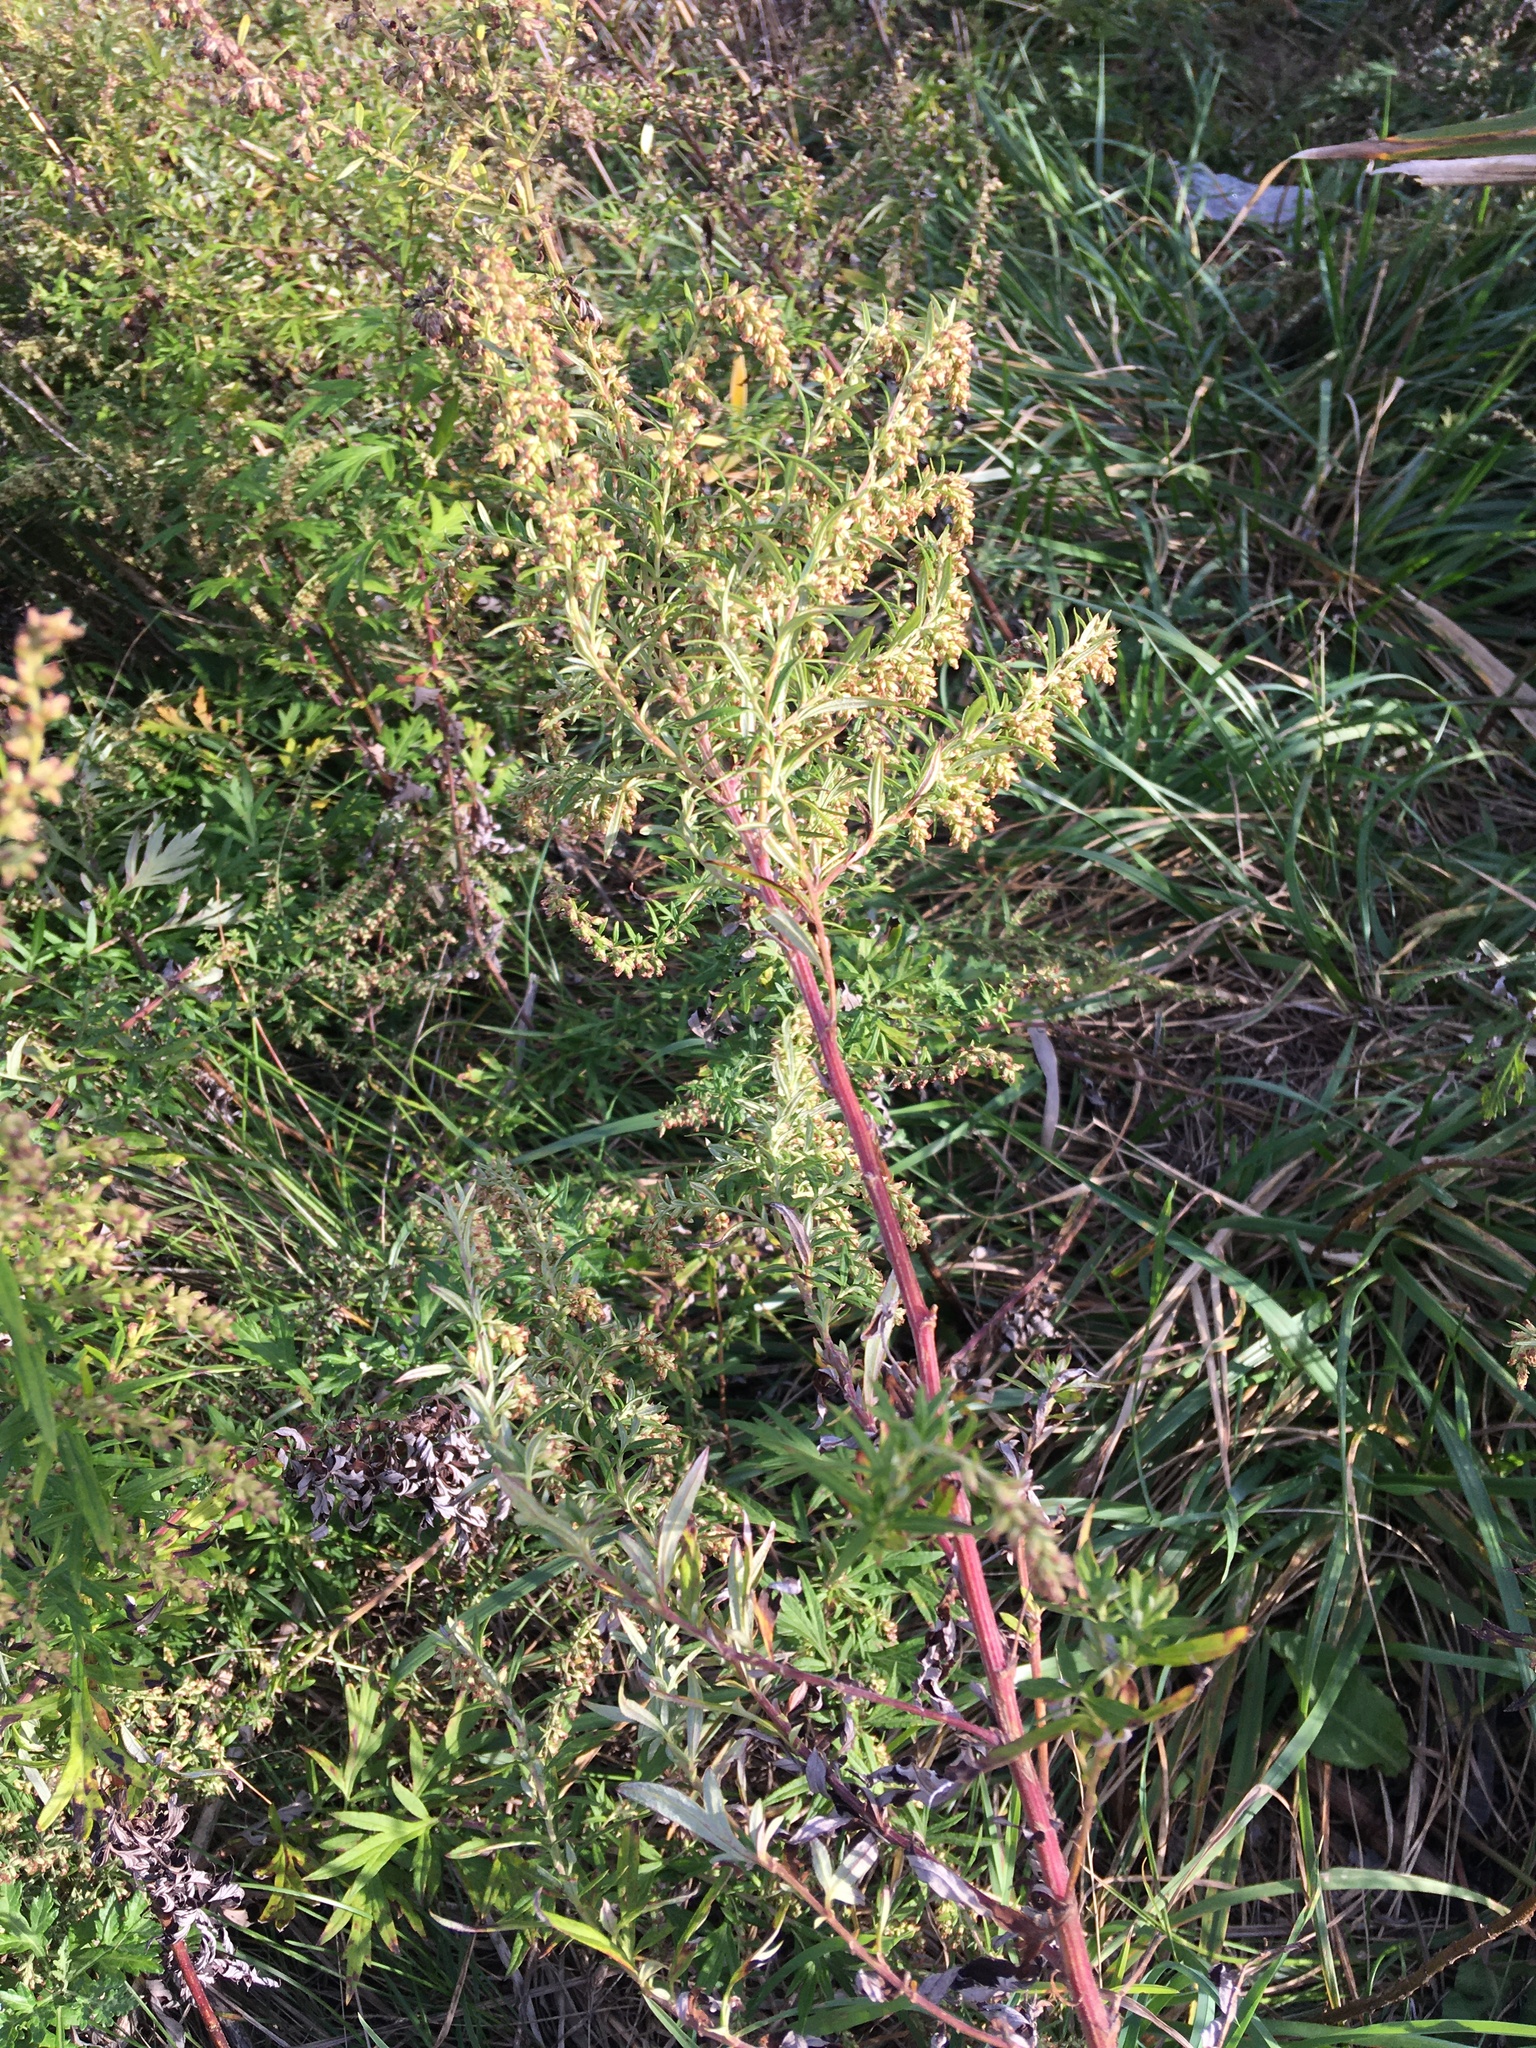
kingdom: Plantae
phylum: Tracheophyta
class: Magnoliopsida
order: Asterales
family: Asteraceae
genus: Artemisia
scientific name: Artemisia vulgaris
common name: Mugwort
